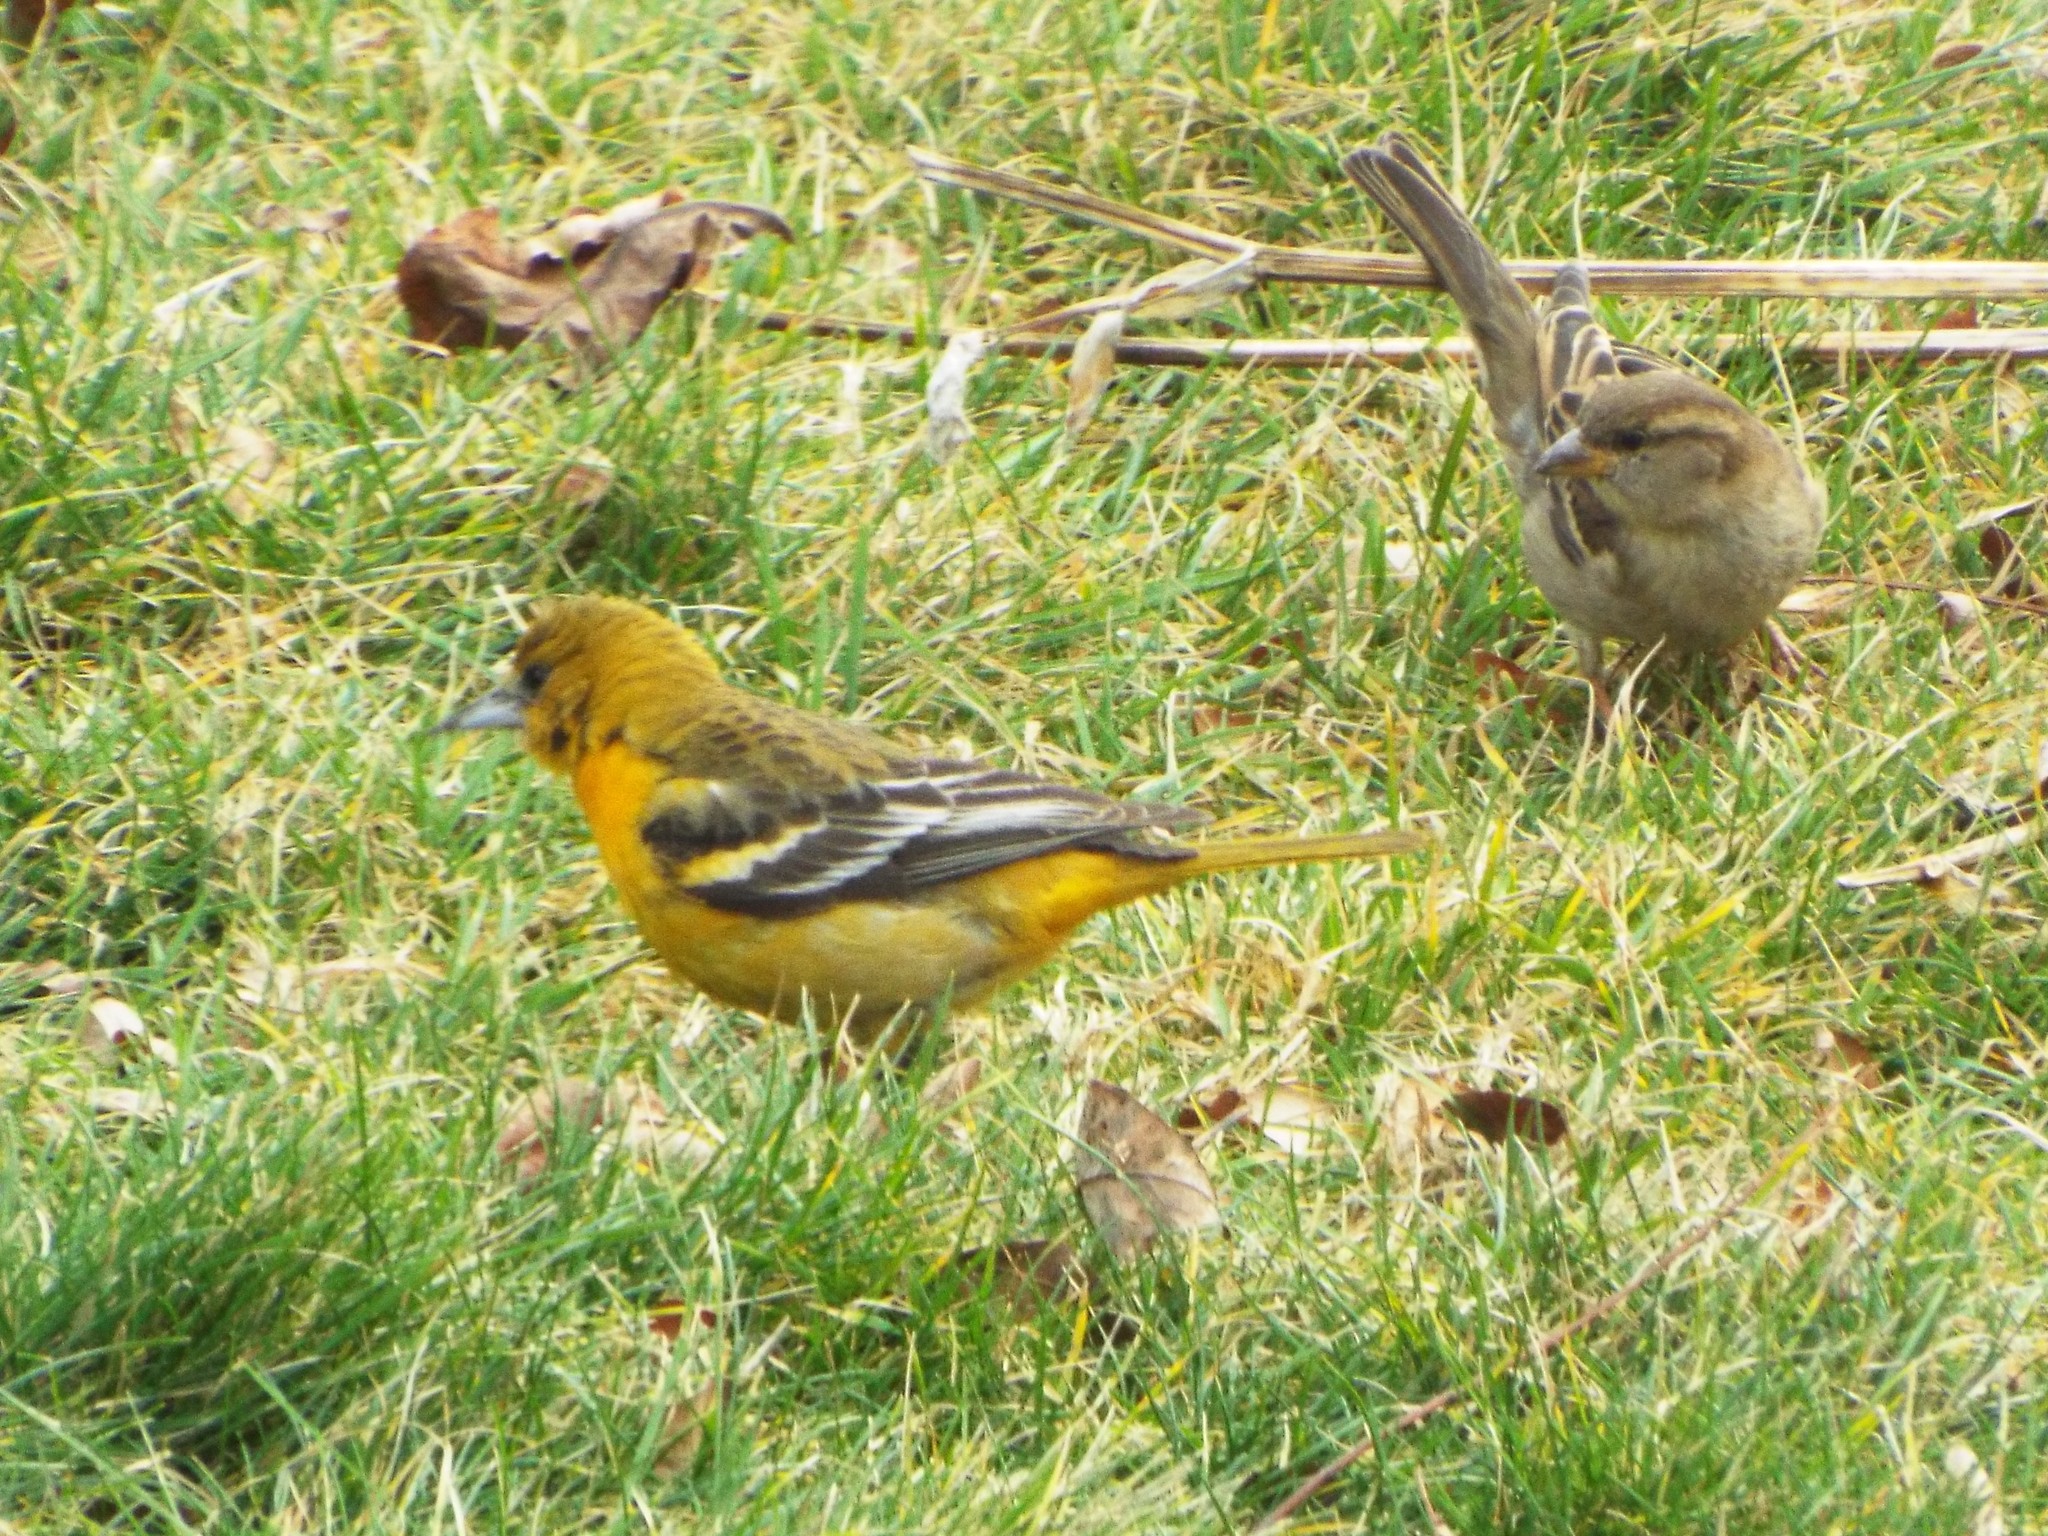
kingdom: Animalia
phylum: Chordata
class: Aves
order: Passeriformes
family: Icteridae
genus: Icterus
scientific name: Icterus galbula
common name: Baltimore oriole
